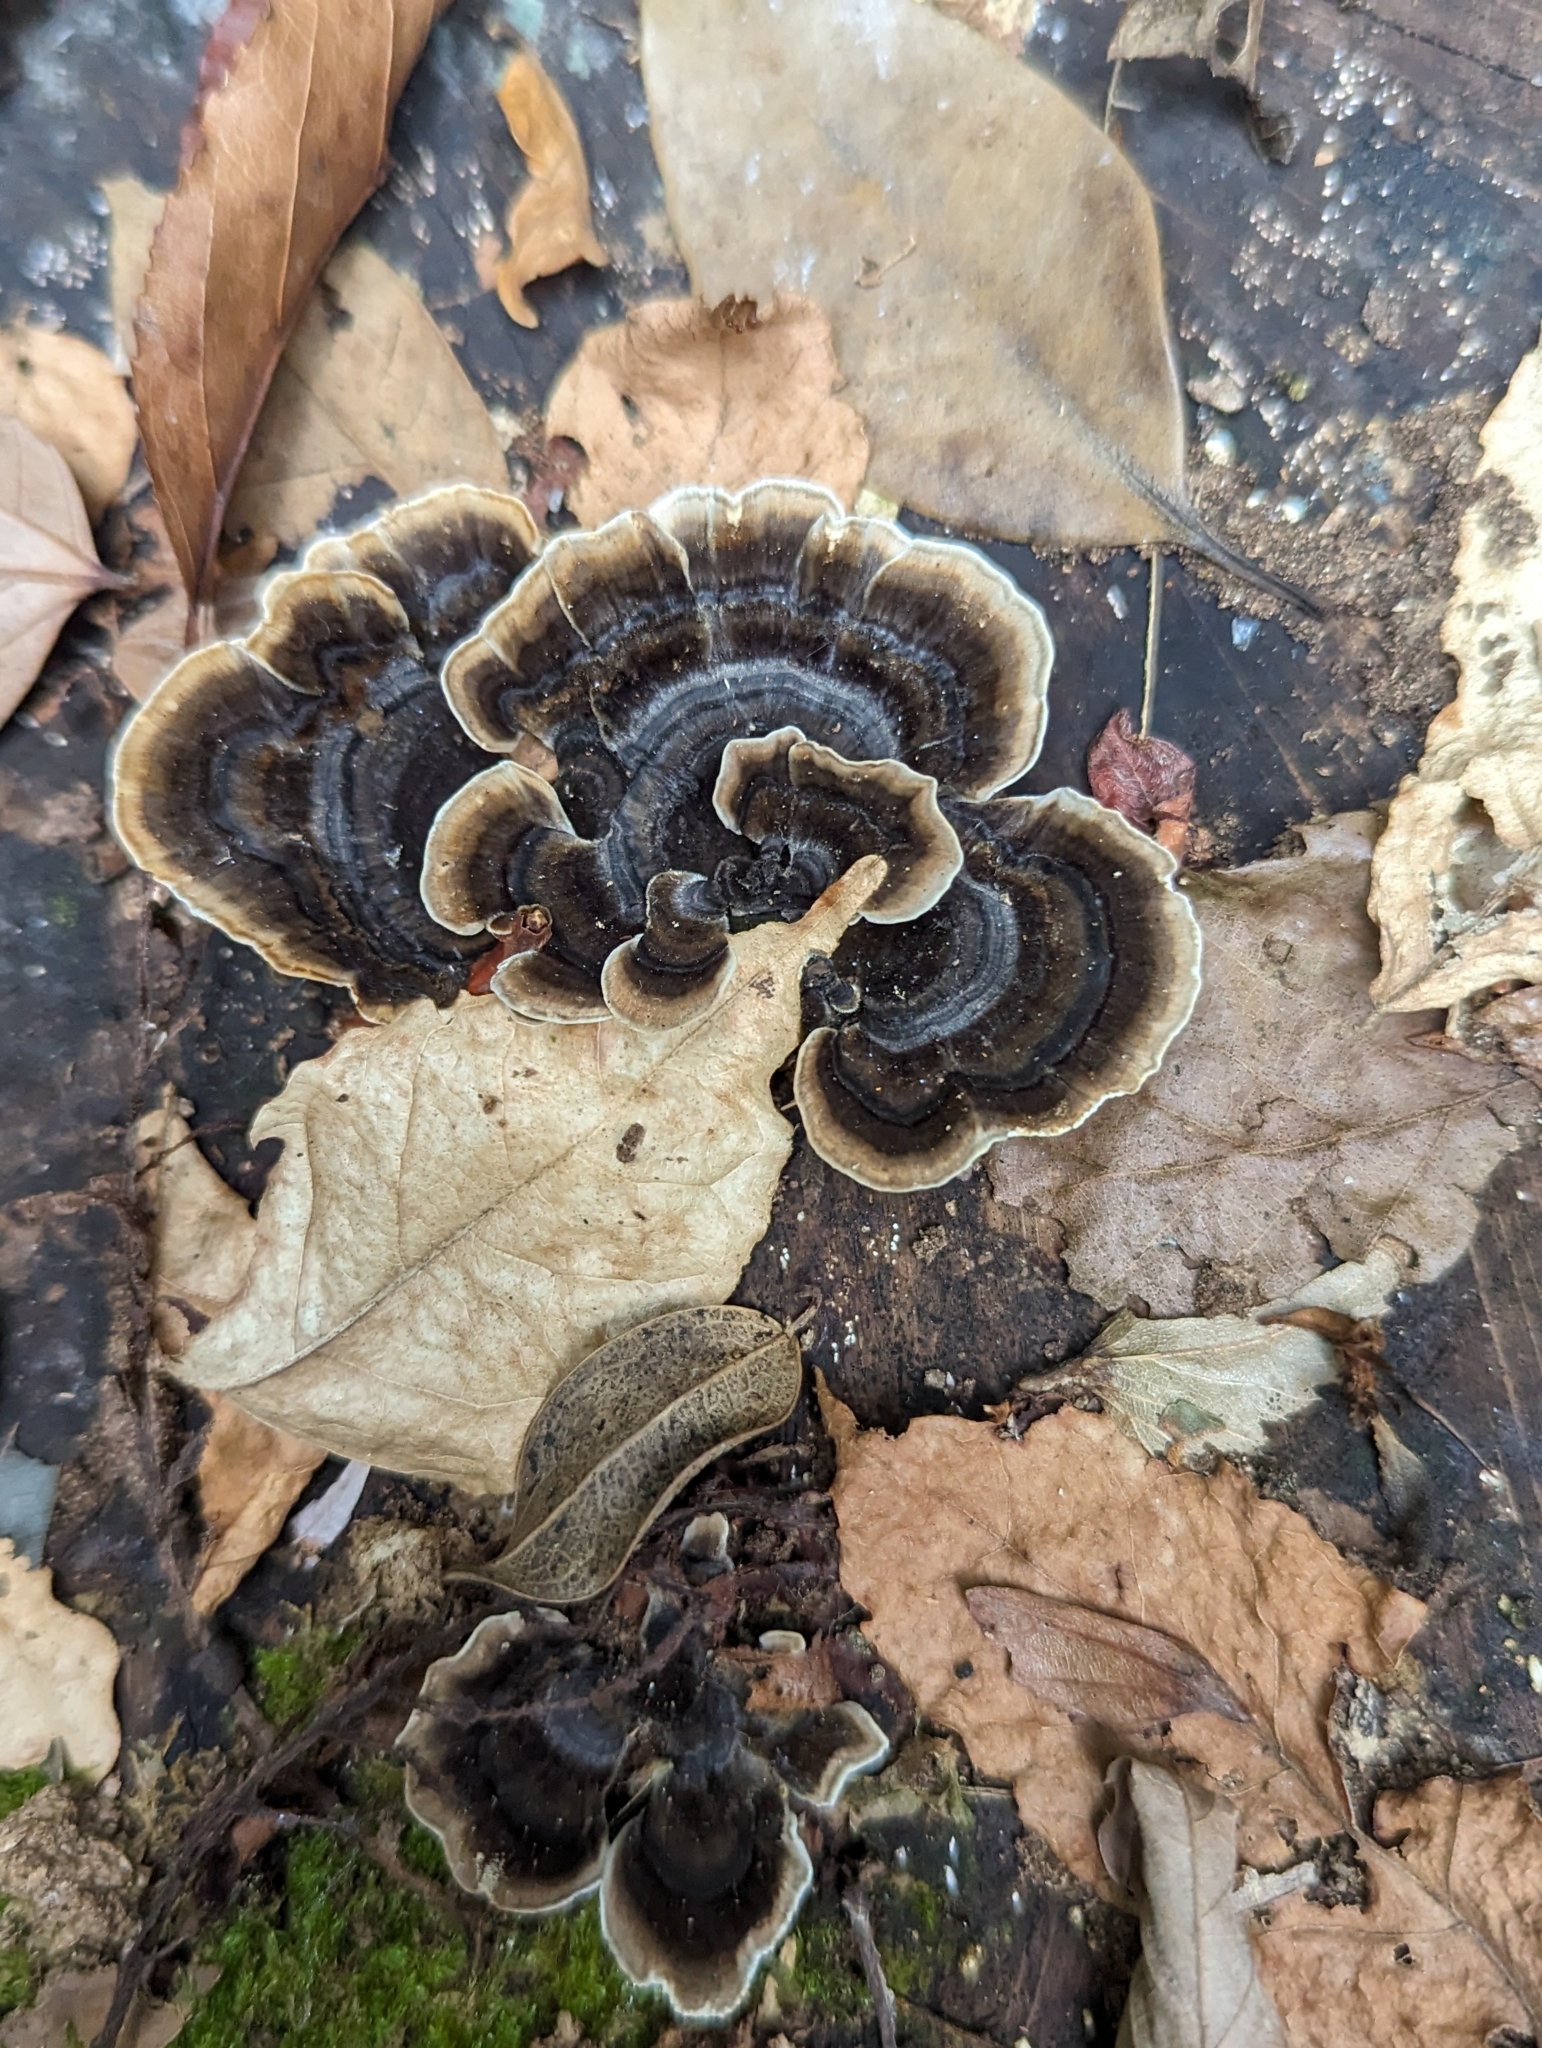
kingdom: Fungi
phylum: Basidiomycota
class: Agaricomycetes
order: Polyporales
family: Polyporaceae
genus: Trametes
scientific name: Trametes versicolor
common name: Turkeytail
